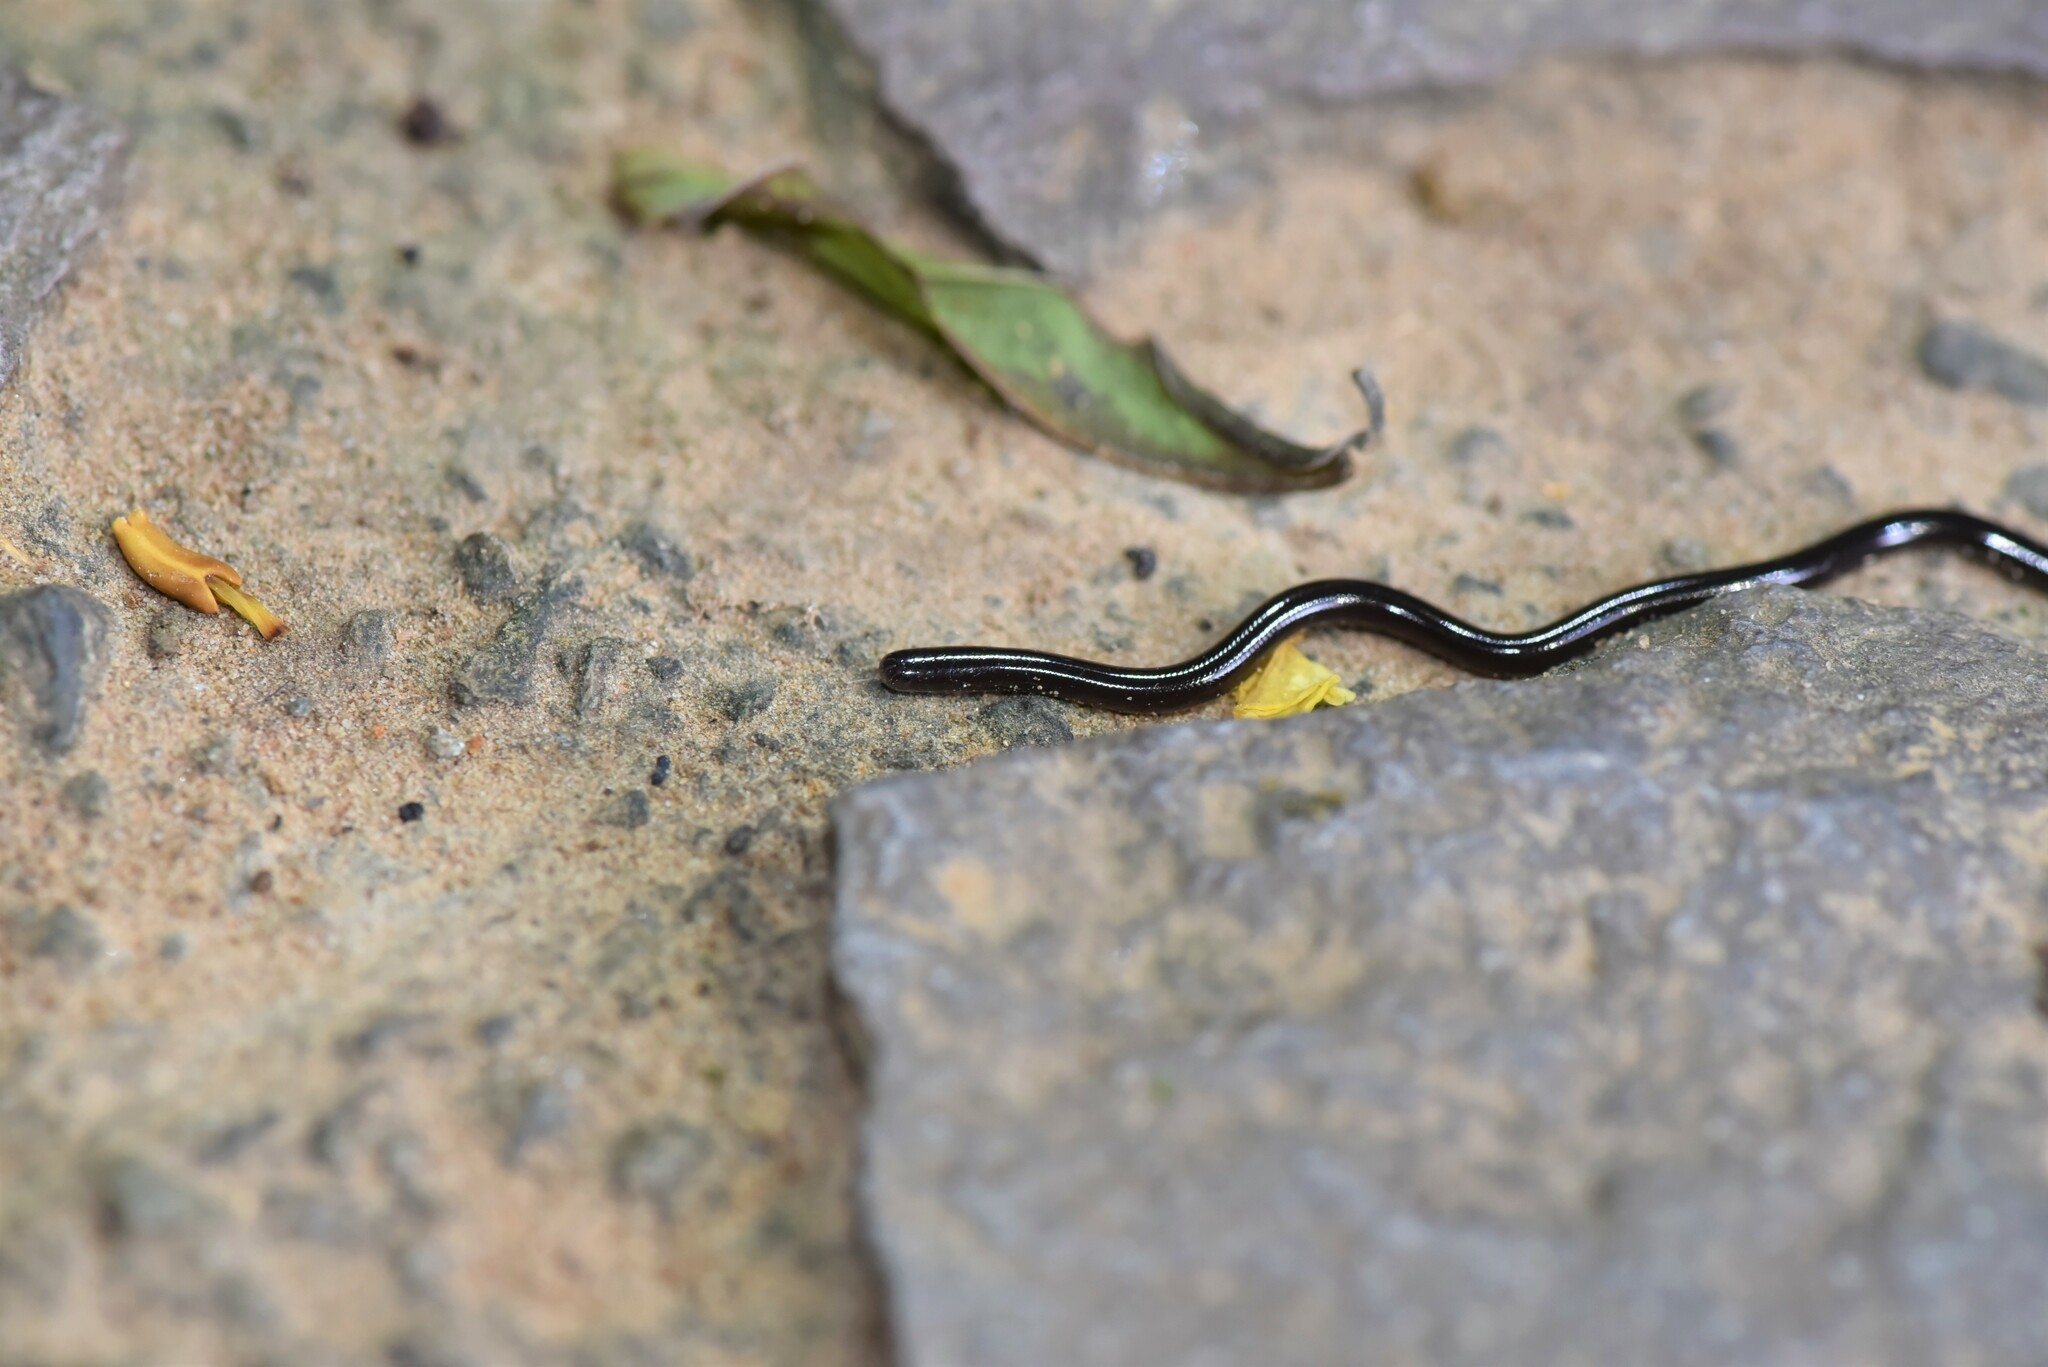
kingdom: Animalia
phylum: Chordata
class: Squamata
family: Typhlopidae
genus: Indotyphlops
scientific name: Indotyphlops braminus
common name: Brahminy blindsnake
